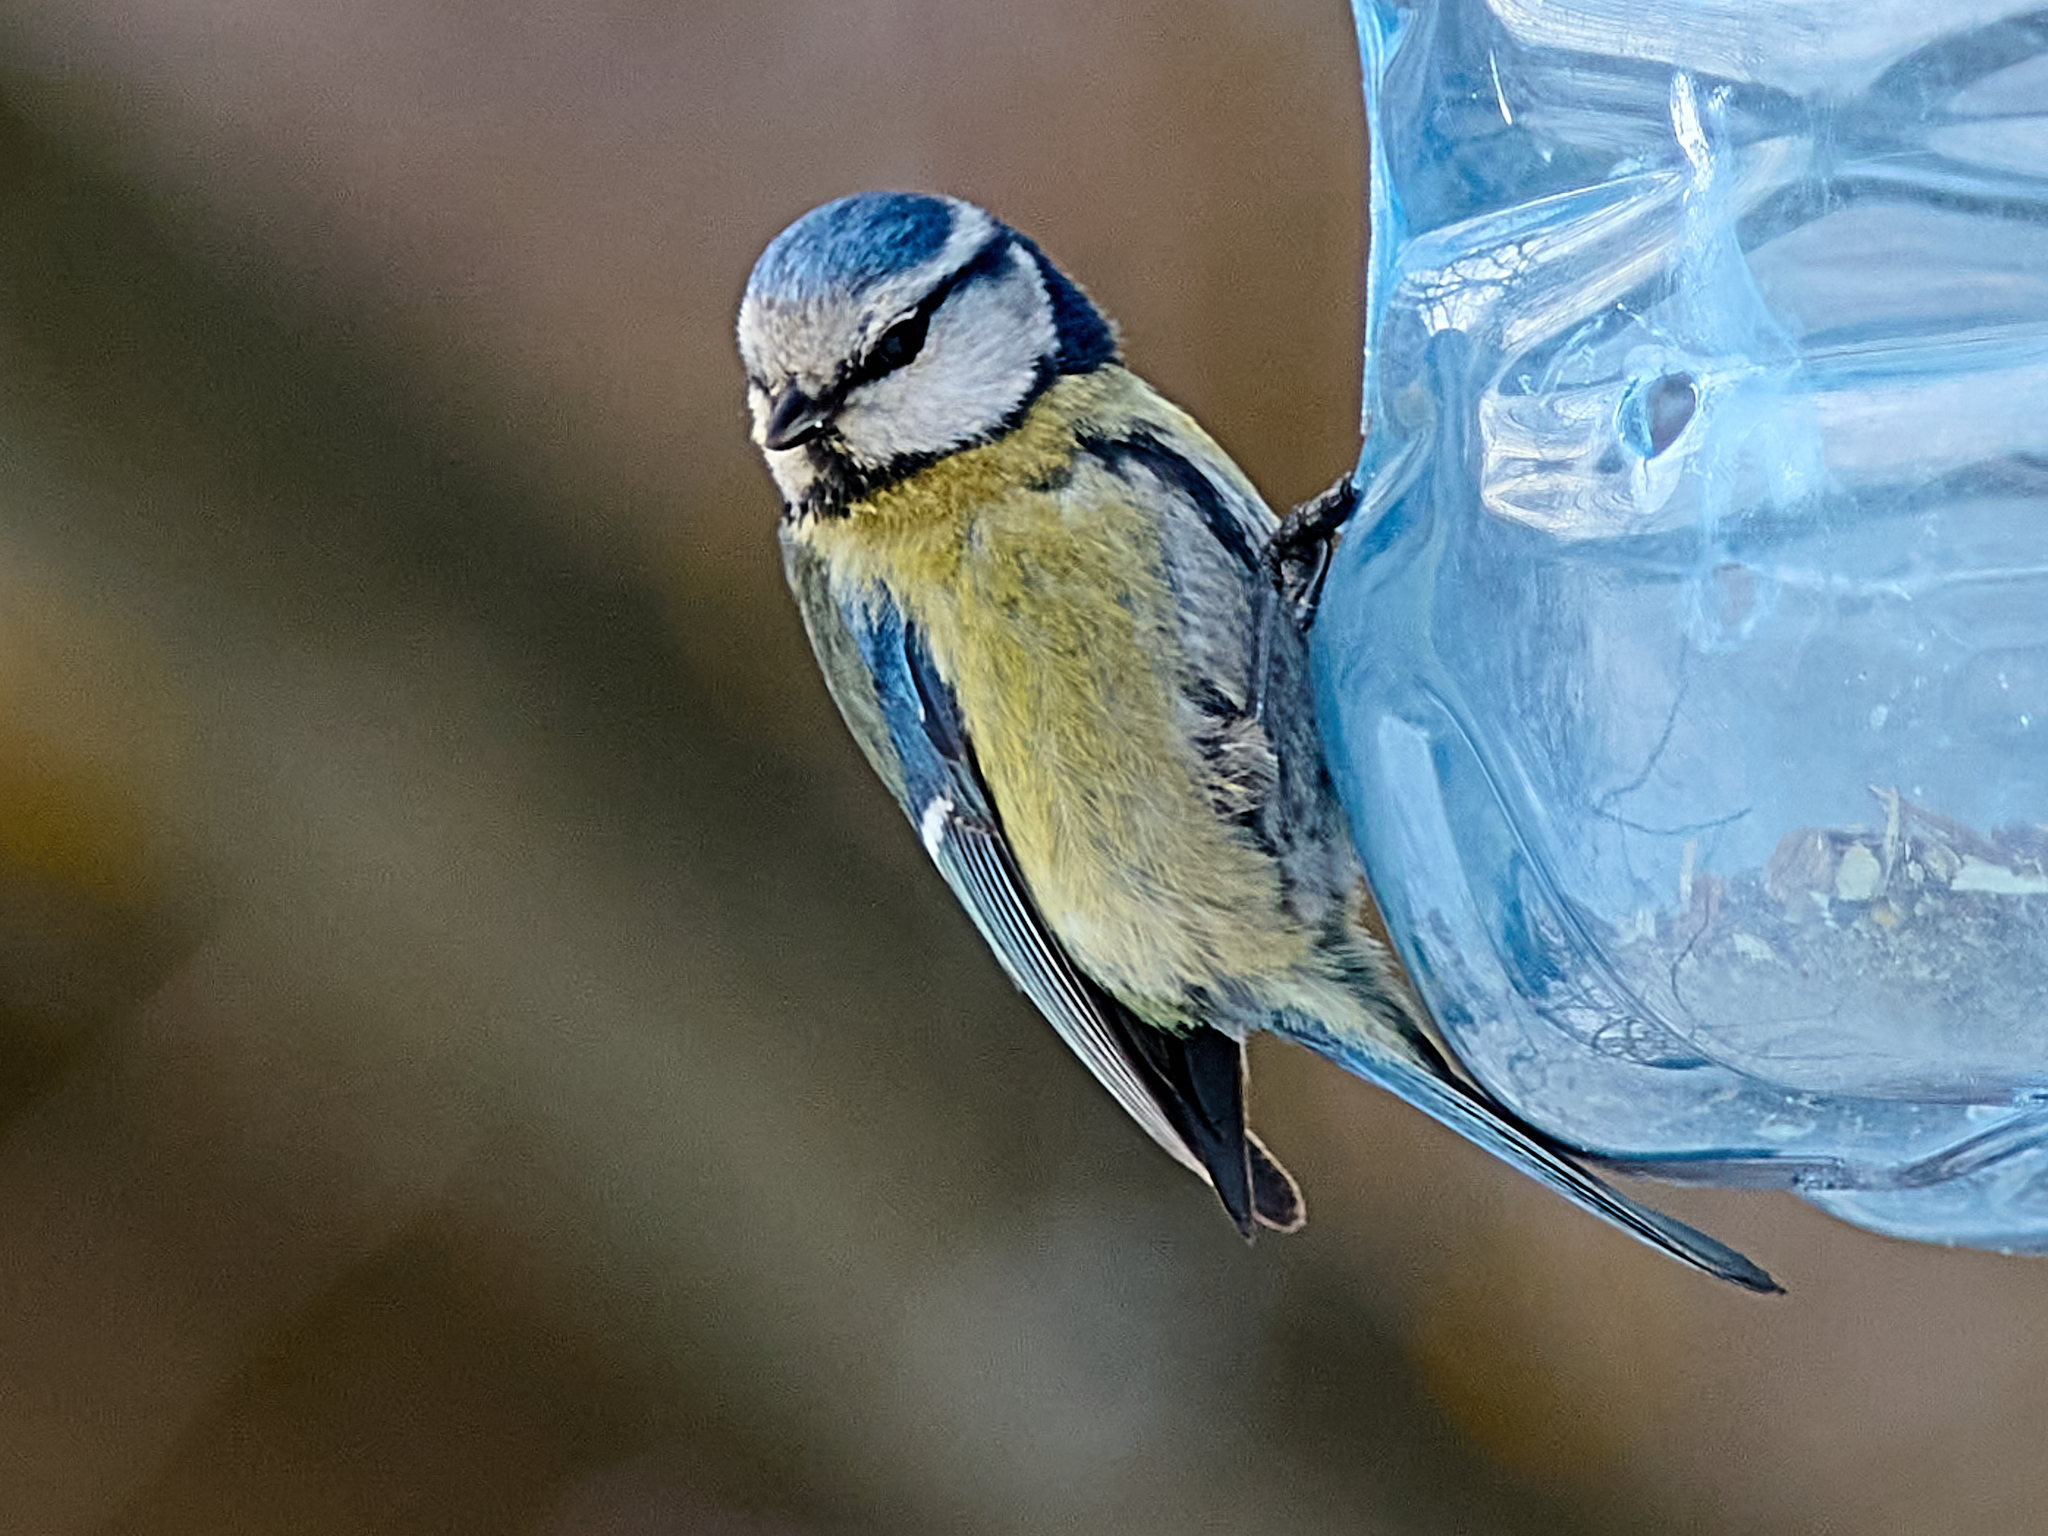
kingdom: Animalia
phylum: Chordata
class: Aves
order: Passeriformes
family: Paridae
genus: Cyanistes
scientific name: Cyanistes caeruleus
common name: Eurasian blue tit
